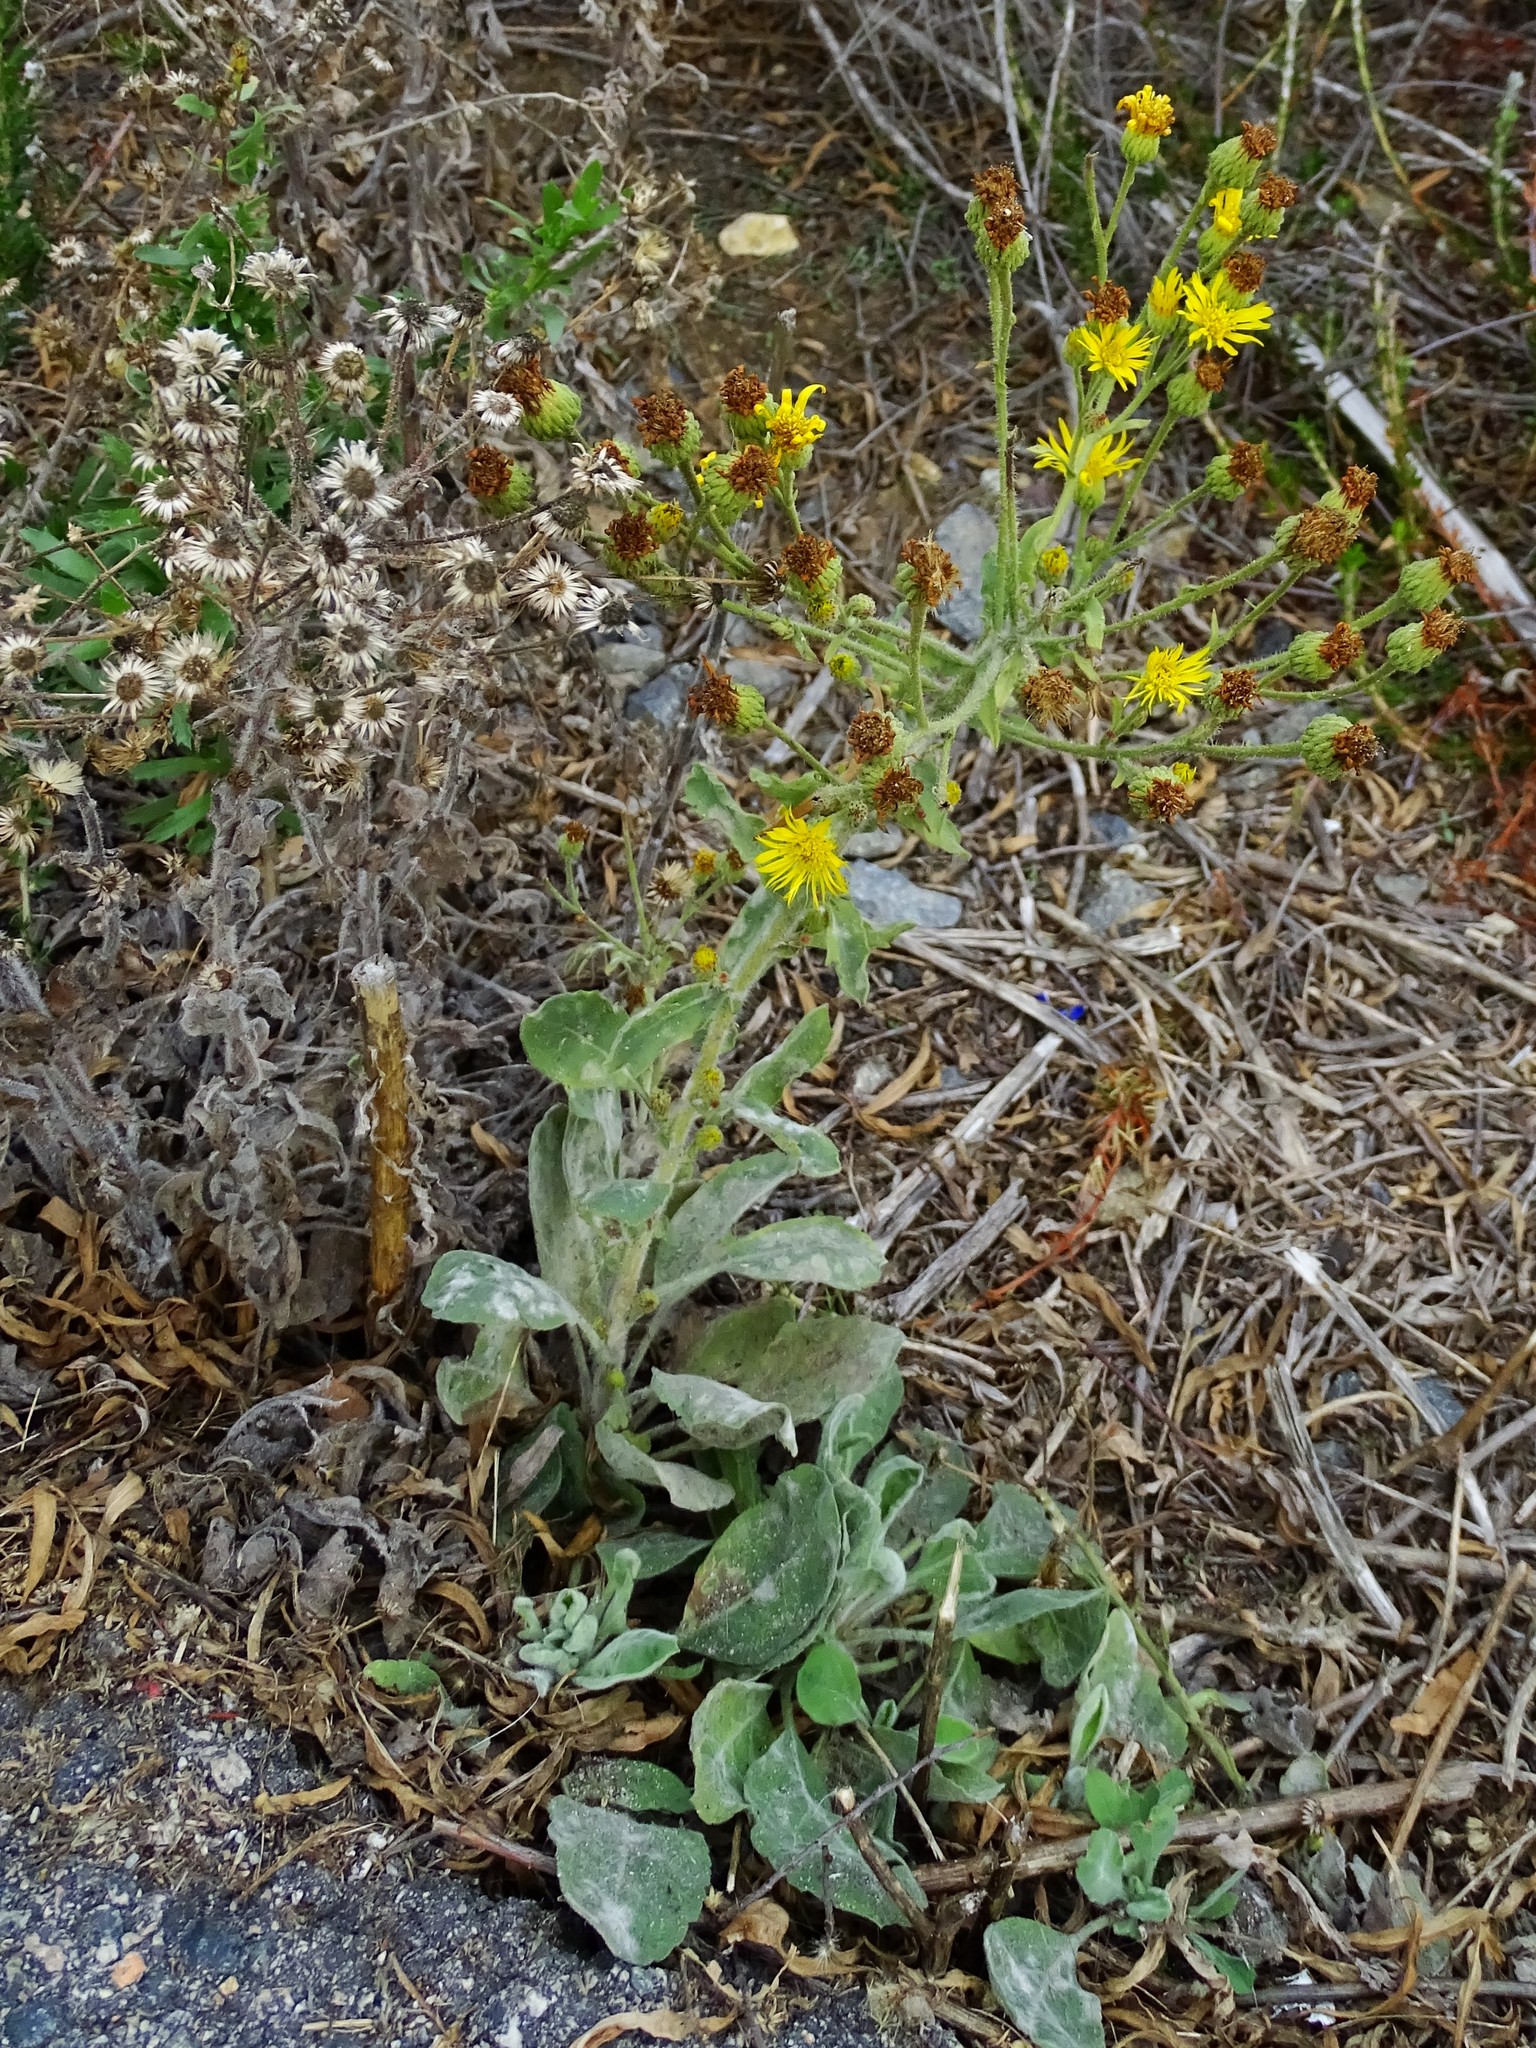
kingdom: Plantae
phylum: Tracheophyta
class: Magnoliopsida
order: Asterales
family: Asteraceae
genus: Heterotheca
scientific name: Heterotheca grandiflora
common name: Telegraphweed
